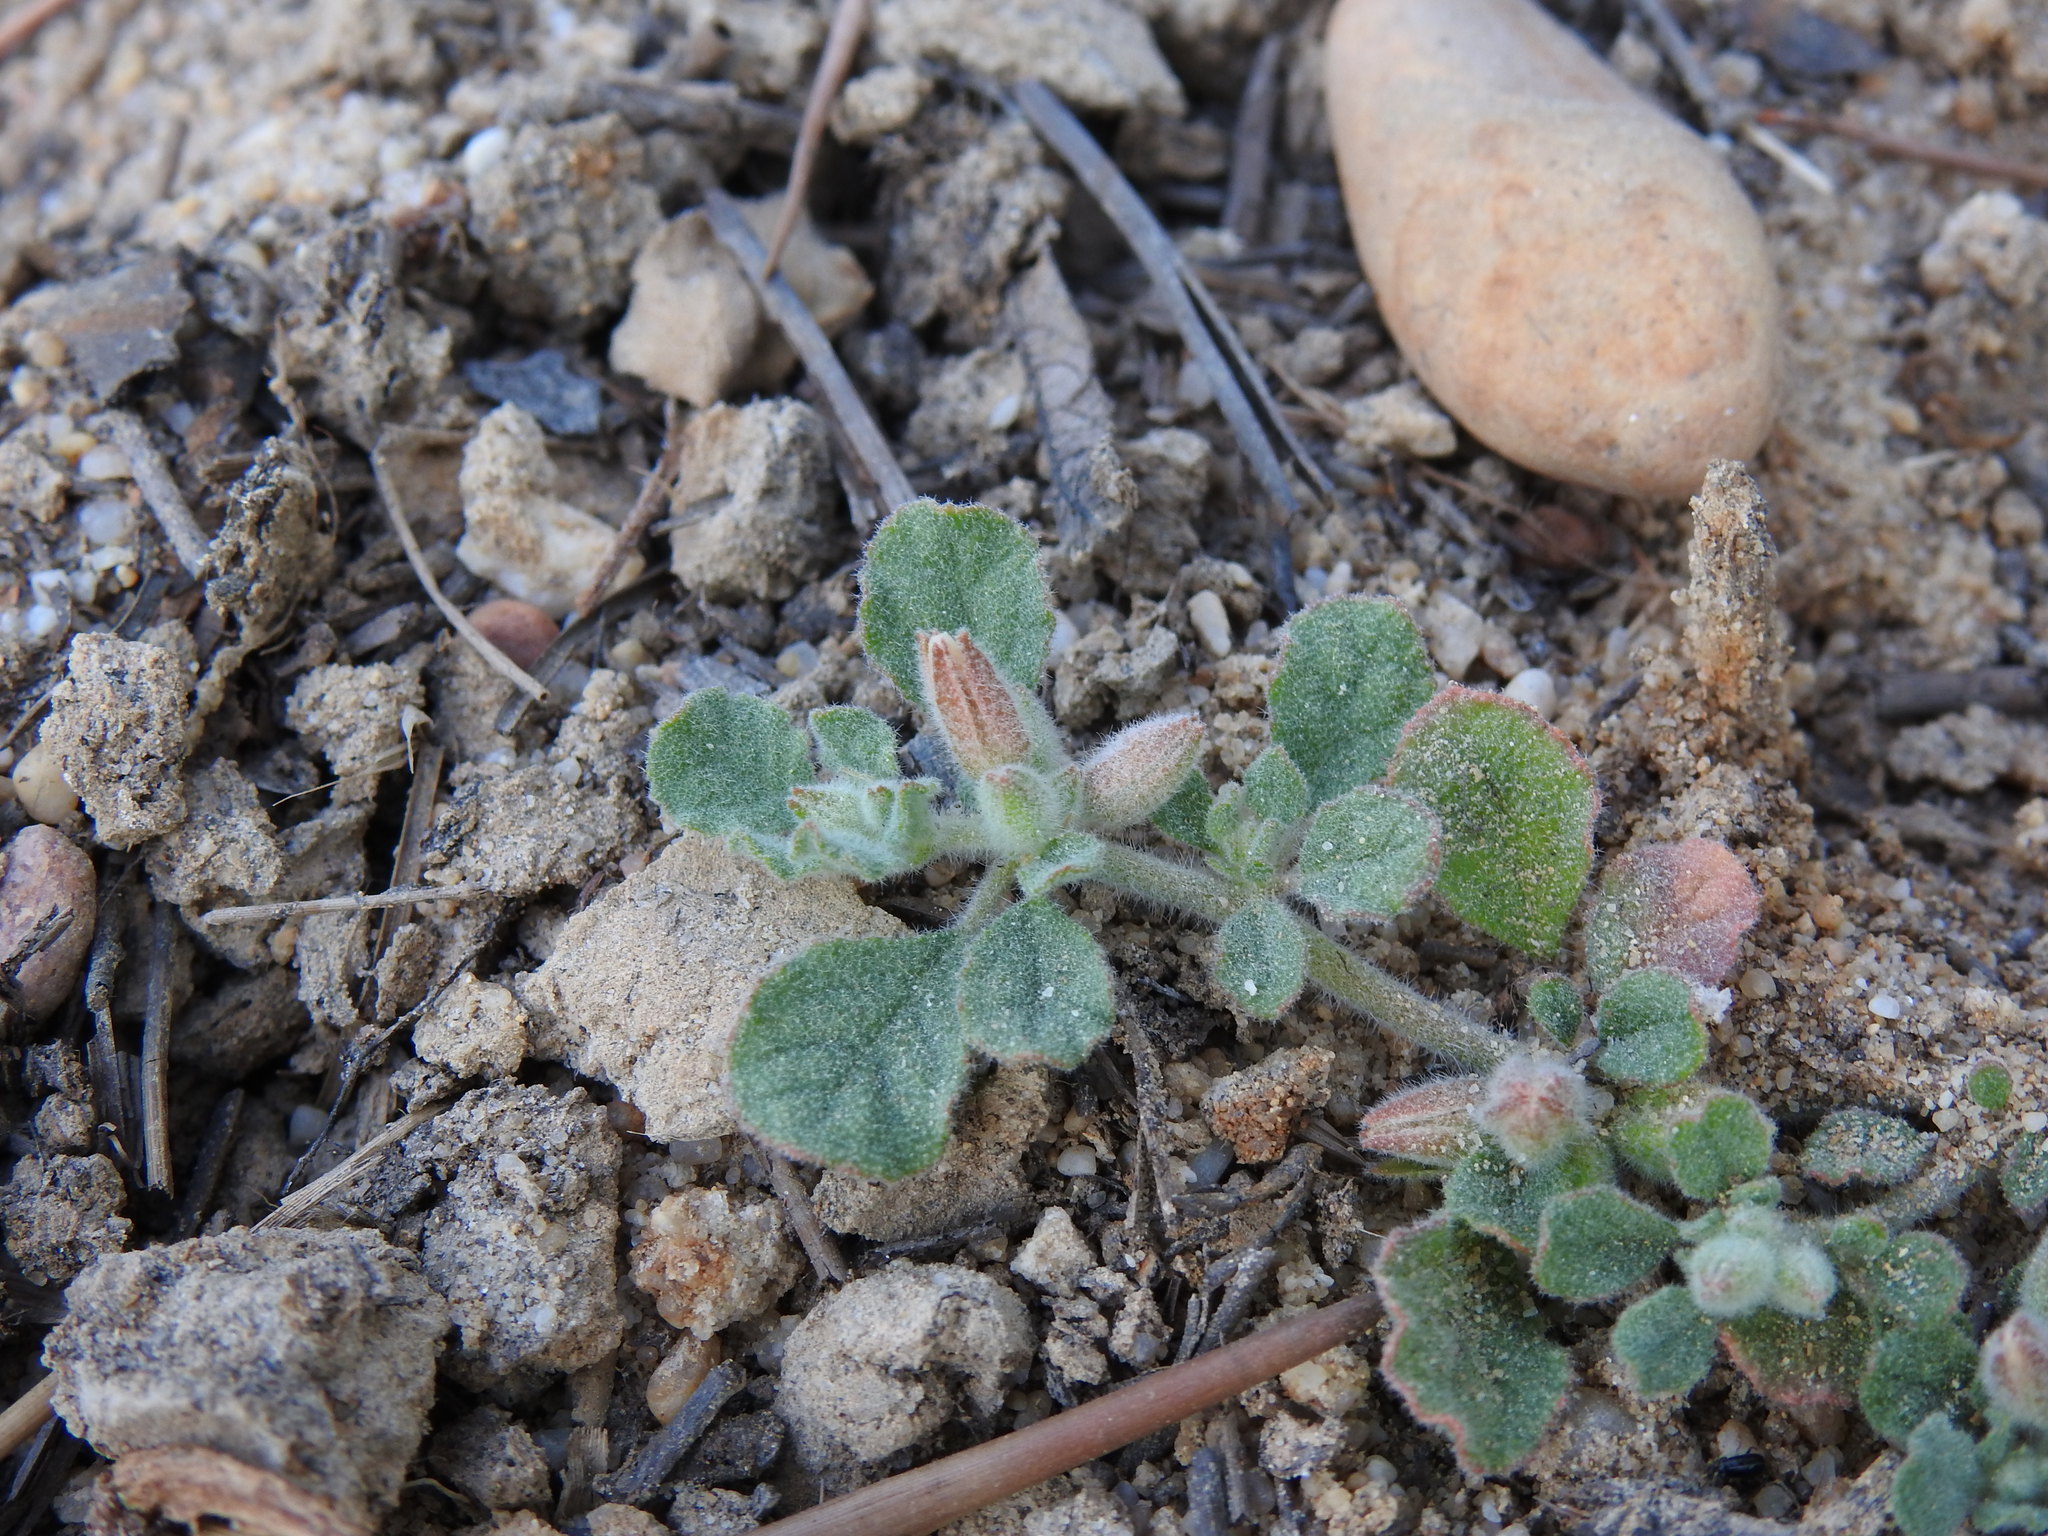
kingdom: Plantae
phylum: Tracheophyta
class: Magnoliopsida
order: Caryophyllales
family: Molluginaceae
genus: Glinus
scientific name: Glinus lotoides
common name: Lotus sweetjuice
